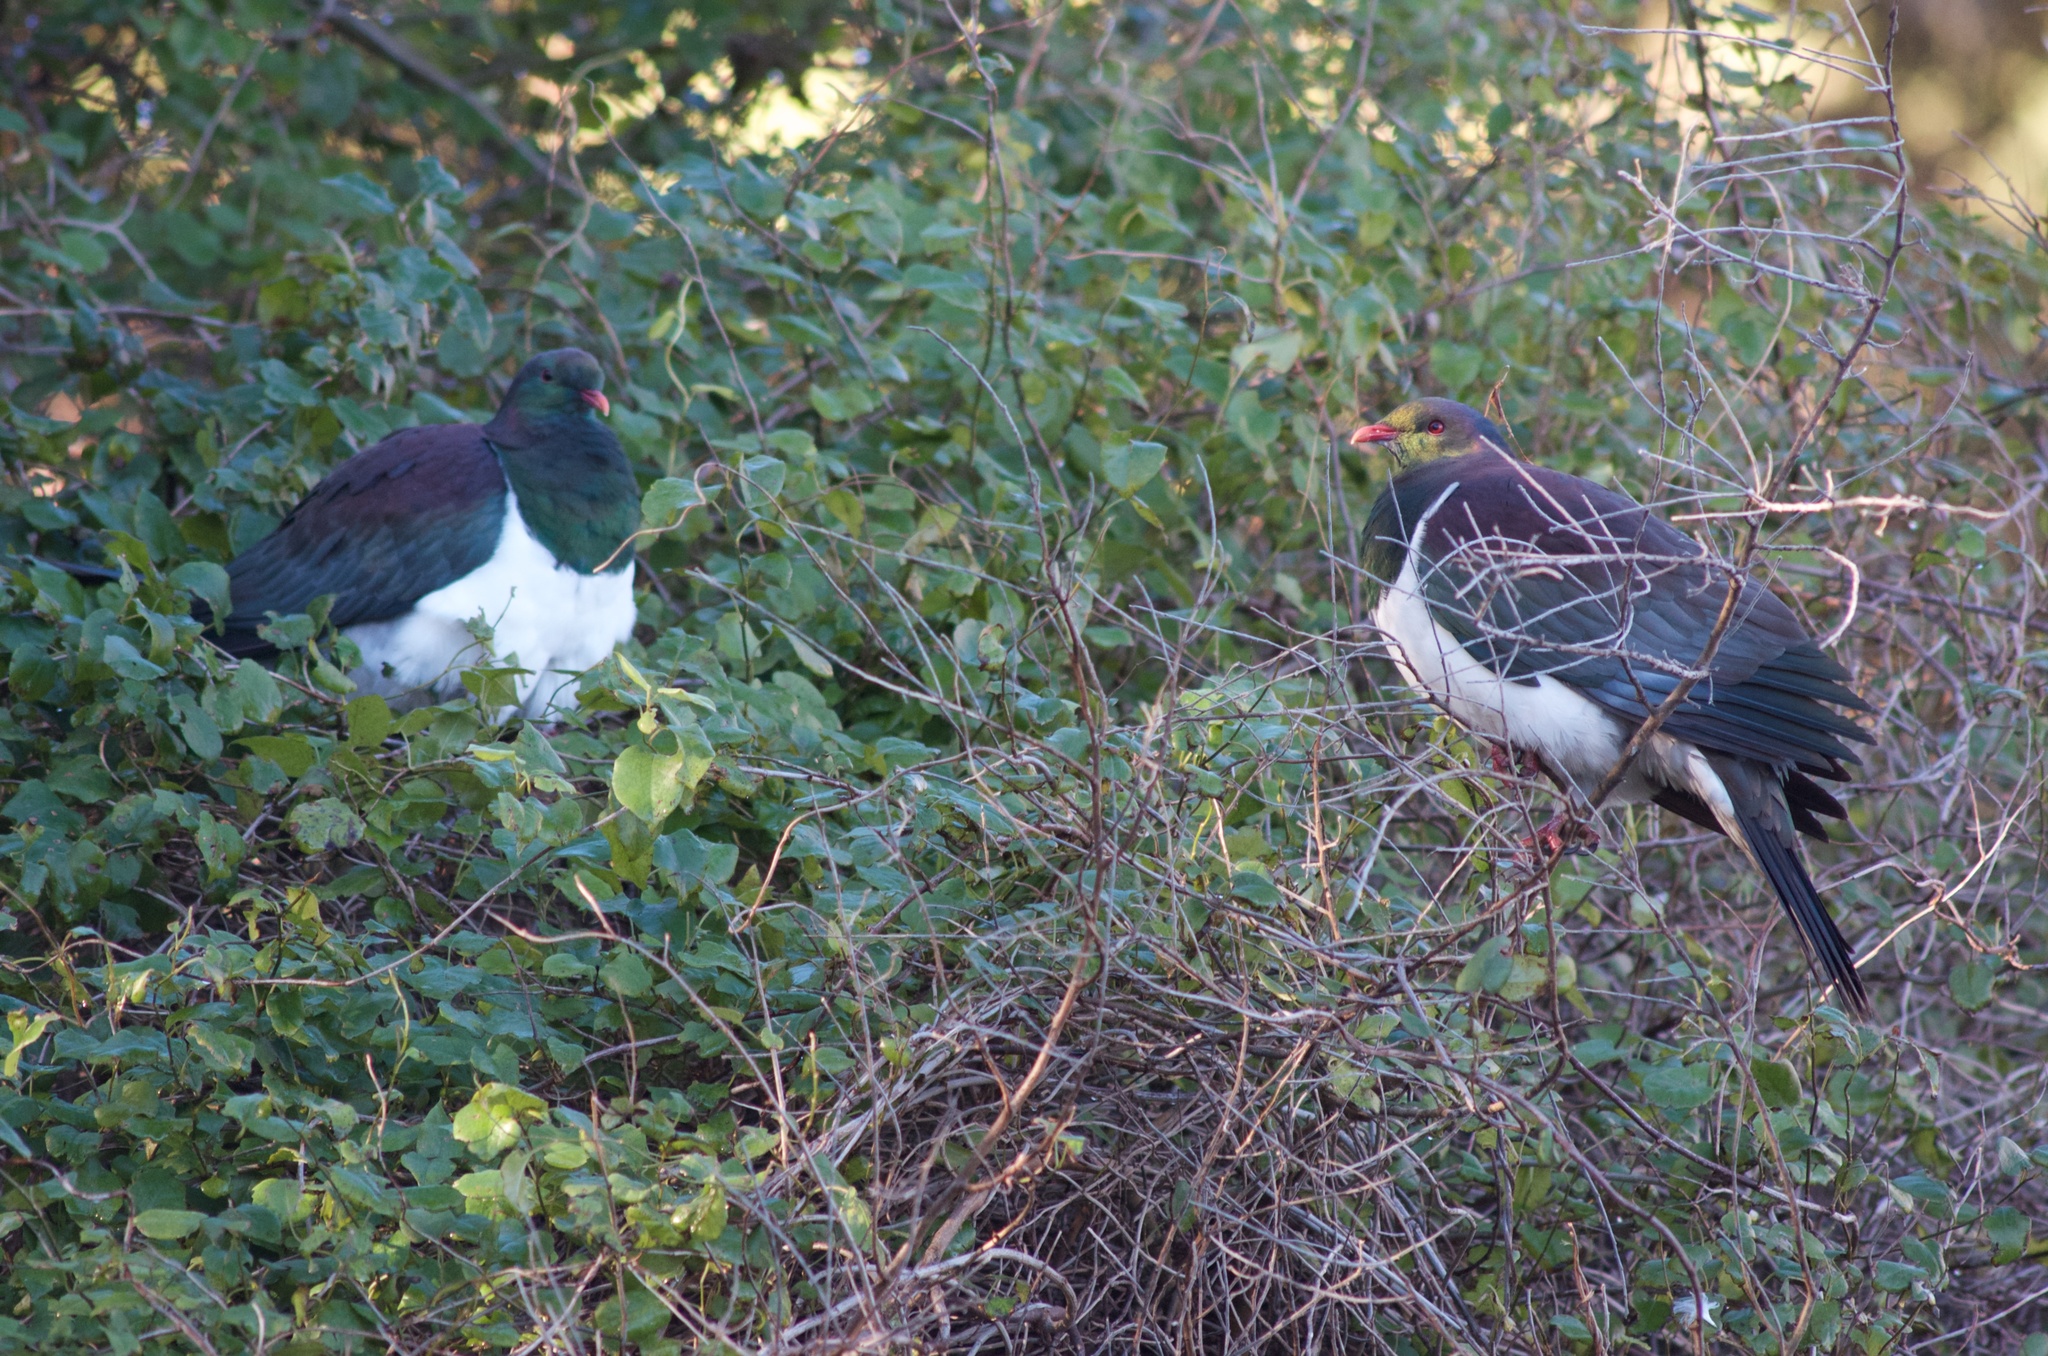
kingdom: Animalia
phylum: Chordata
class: Aves
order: Columbiformes
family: Columbidae
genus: Hemiphaga
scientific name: Hemiphaga novaeseelandiae
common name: New zealand pigeon
